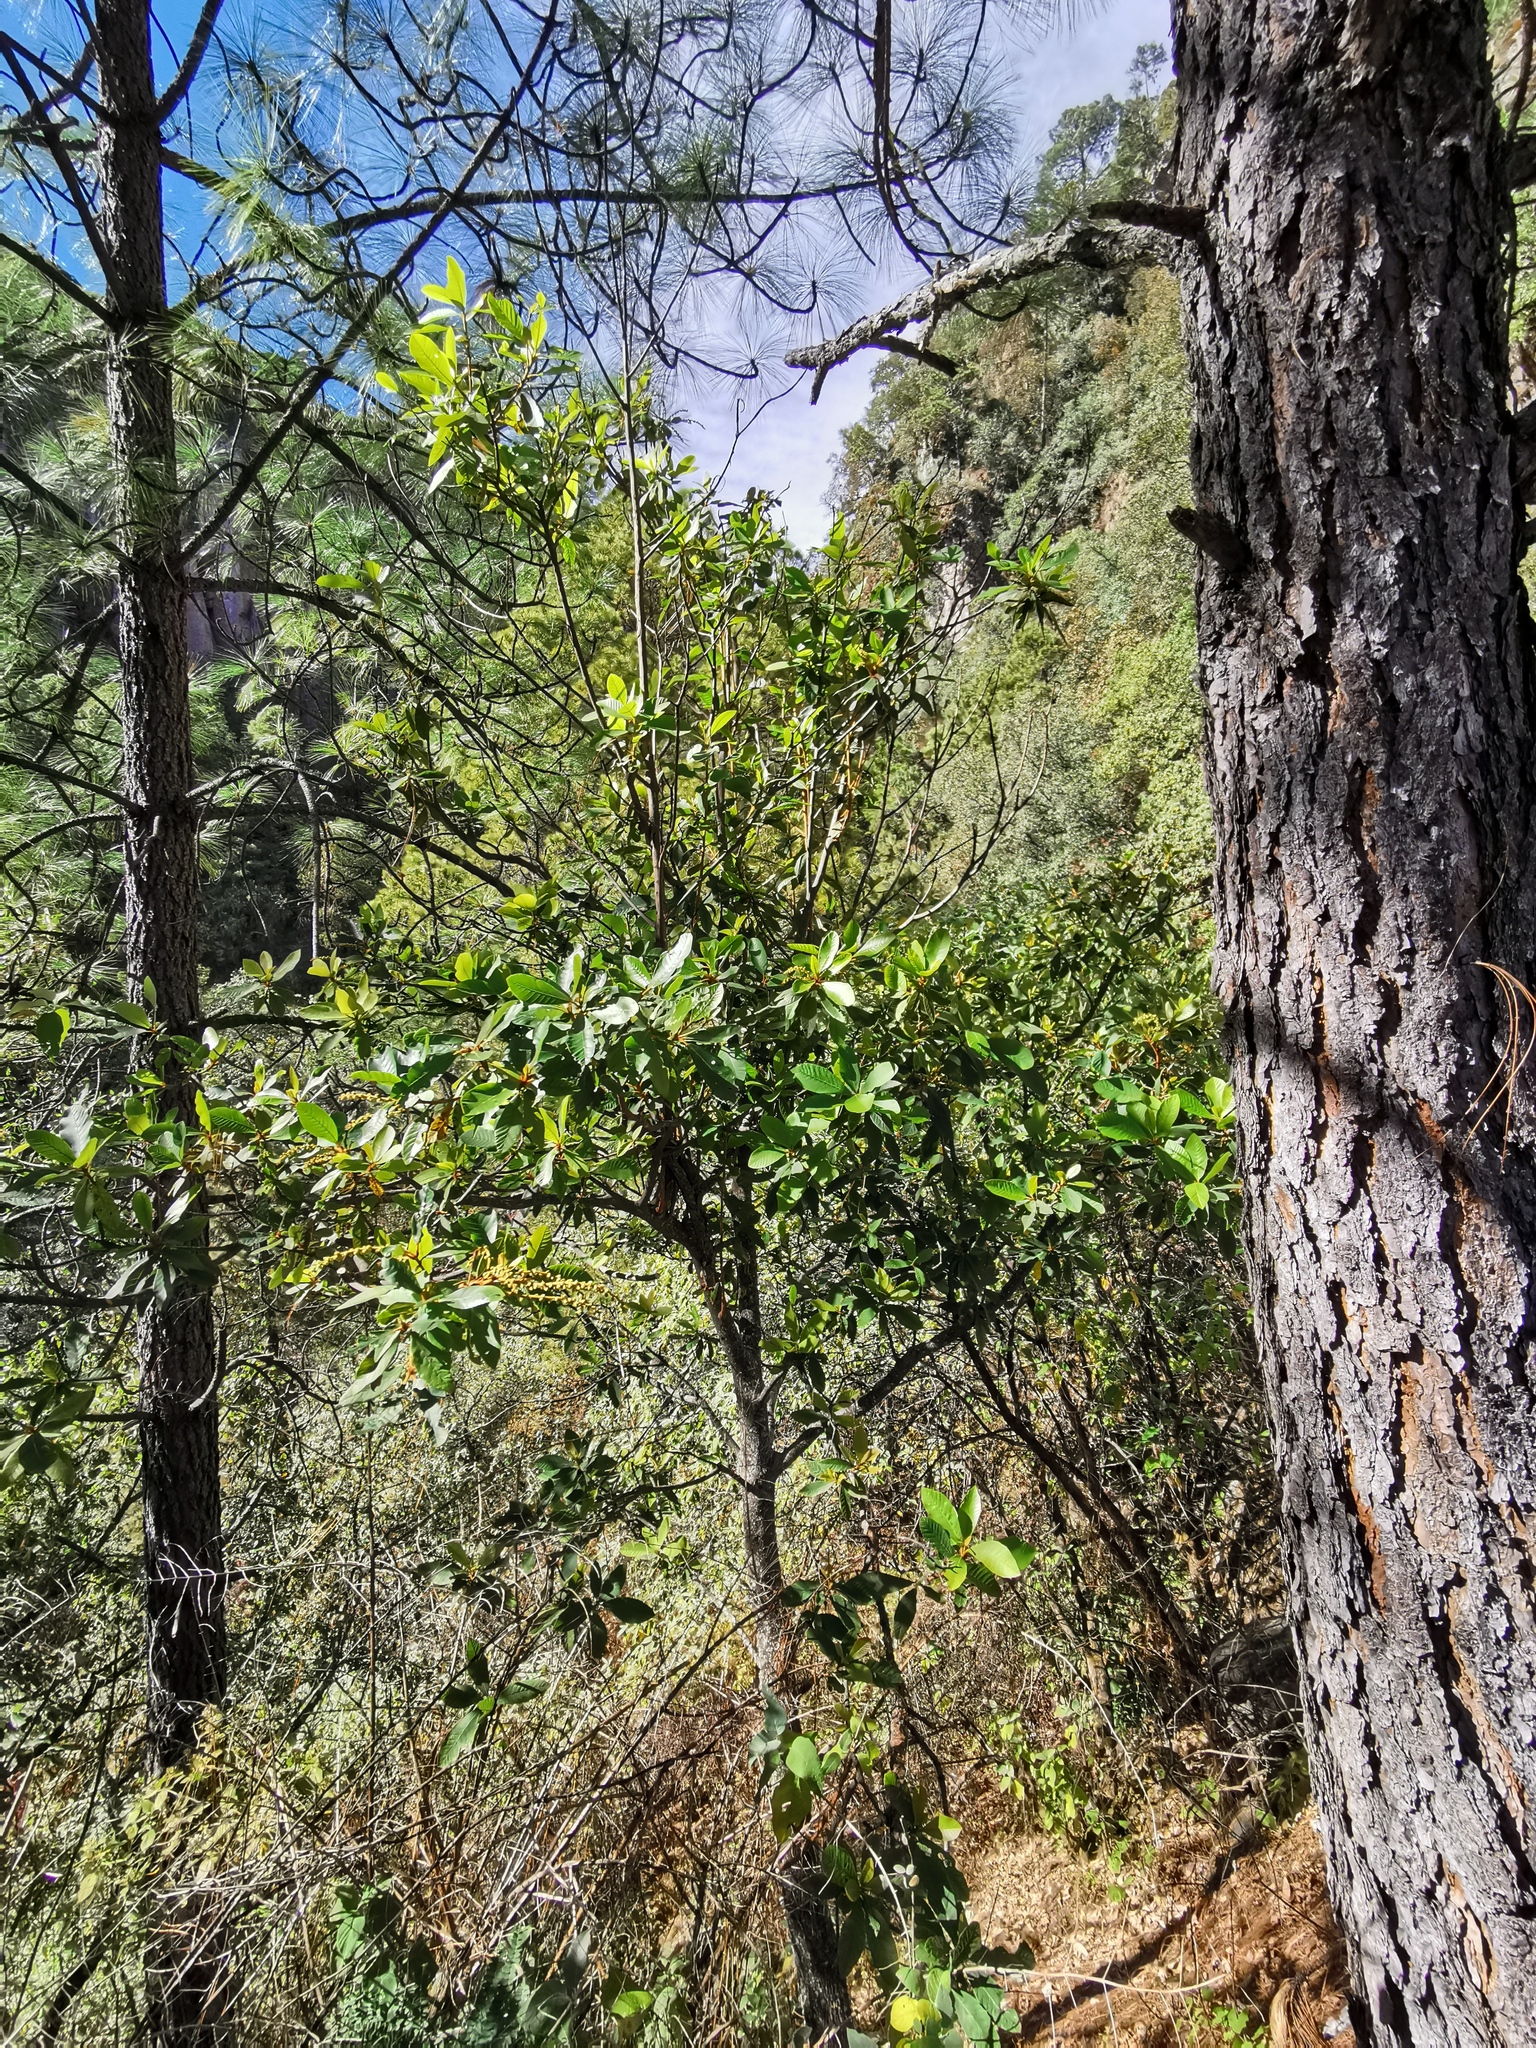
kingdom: Plantae
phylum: Tracheophyta
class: Magnoliopsida
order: Ericales
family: Clethraceae
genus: Clethra
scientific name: Clethra hartwegii
